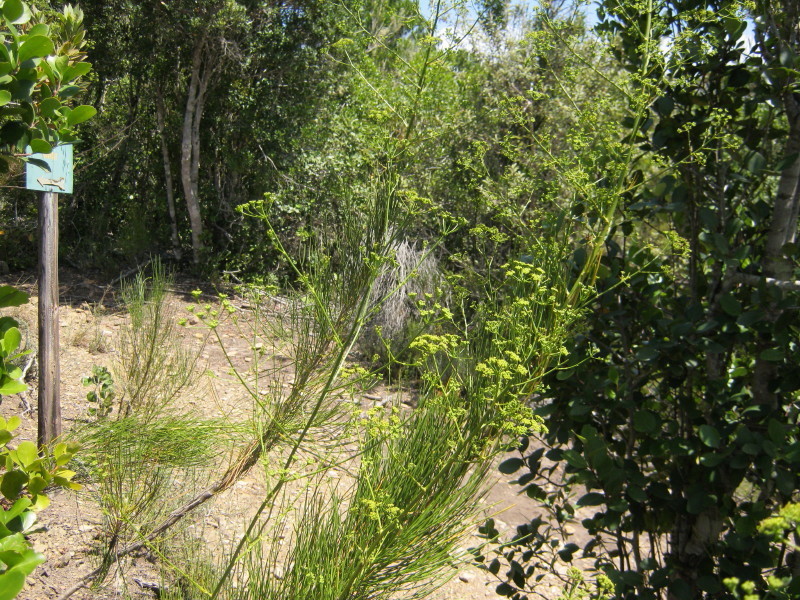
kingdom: Plantae
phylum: Tracheophyta
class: Magnoliopsida
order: Apiales
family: Apiaceae
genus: Anginon
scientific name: Anginon difforme
